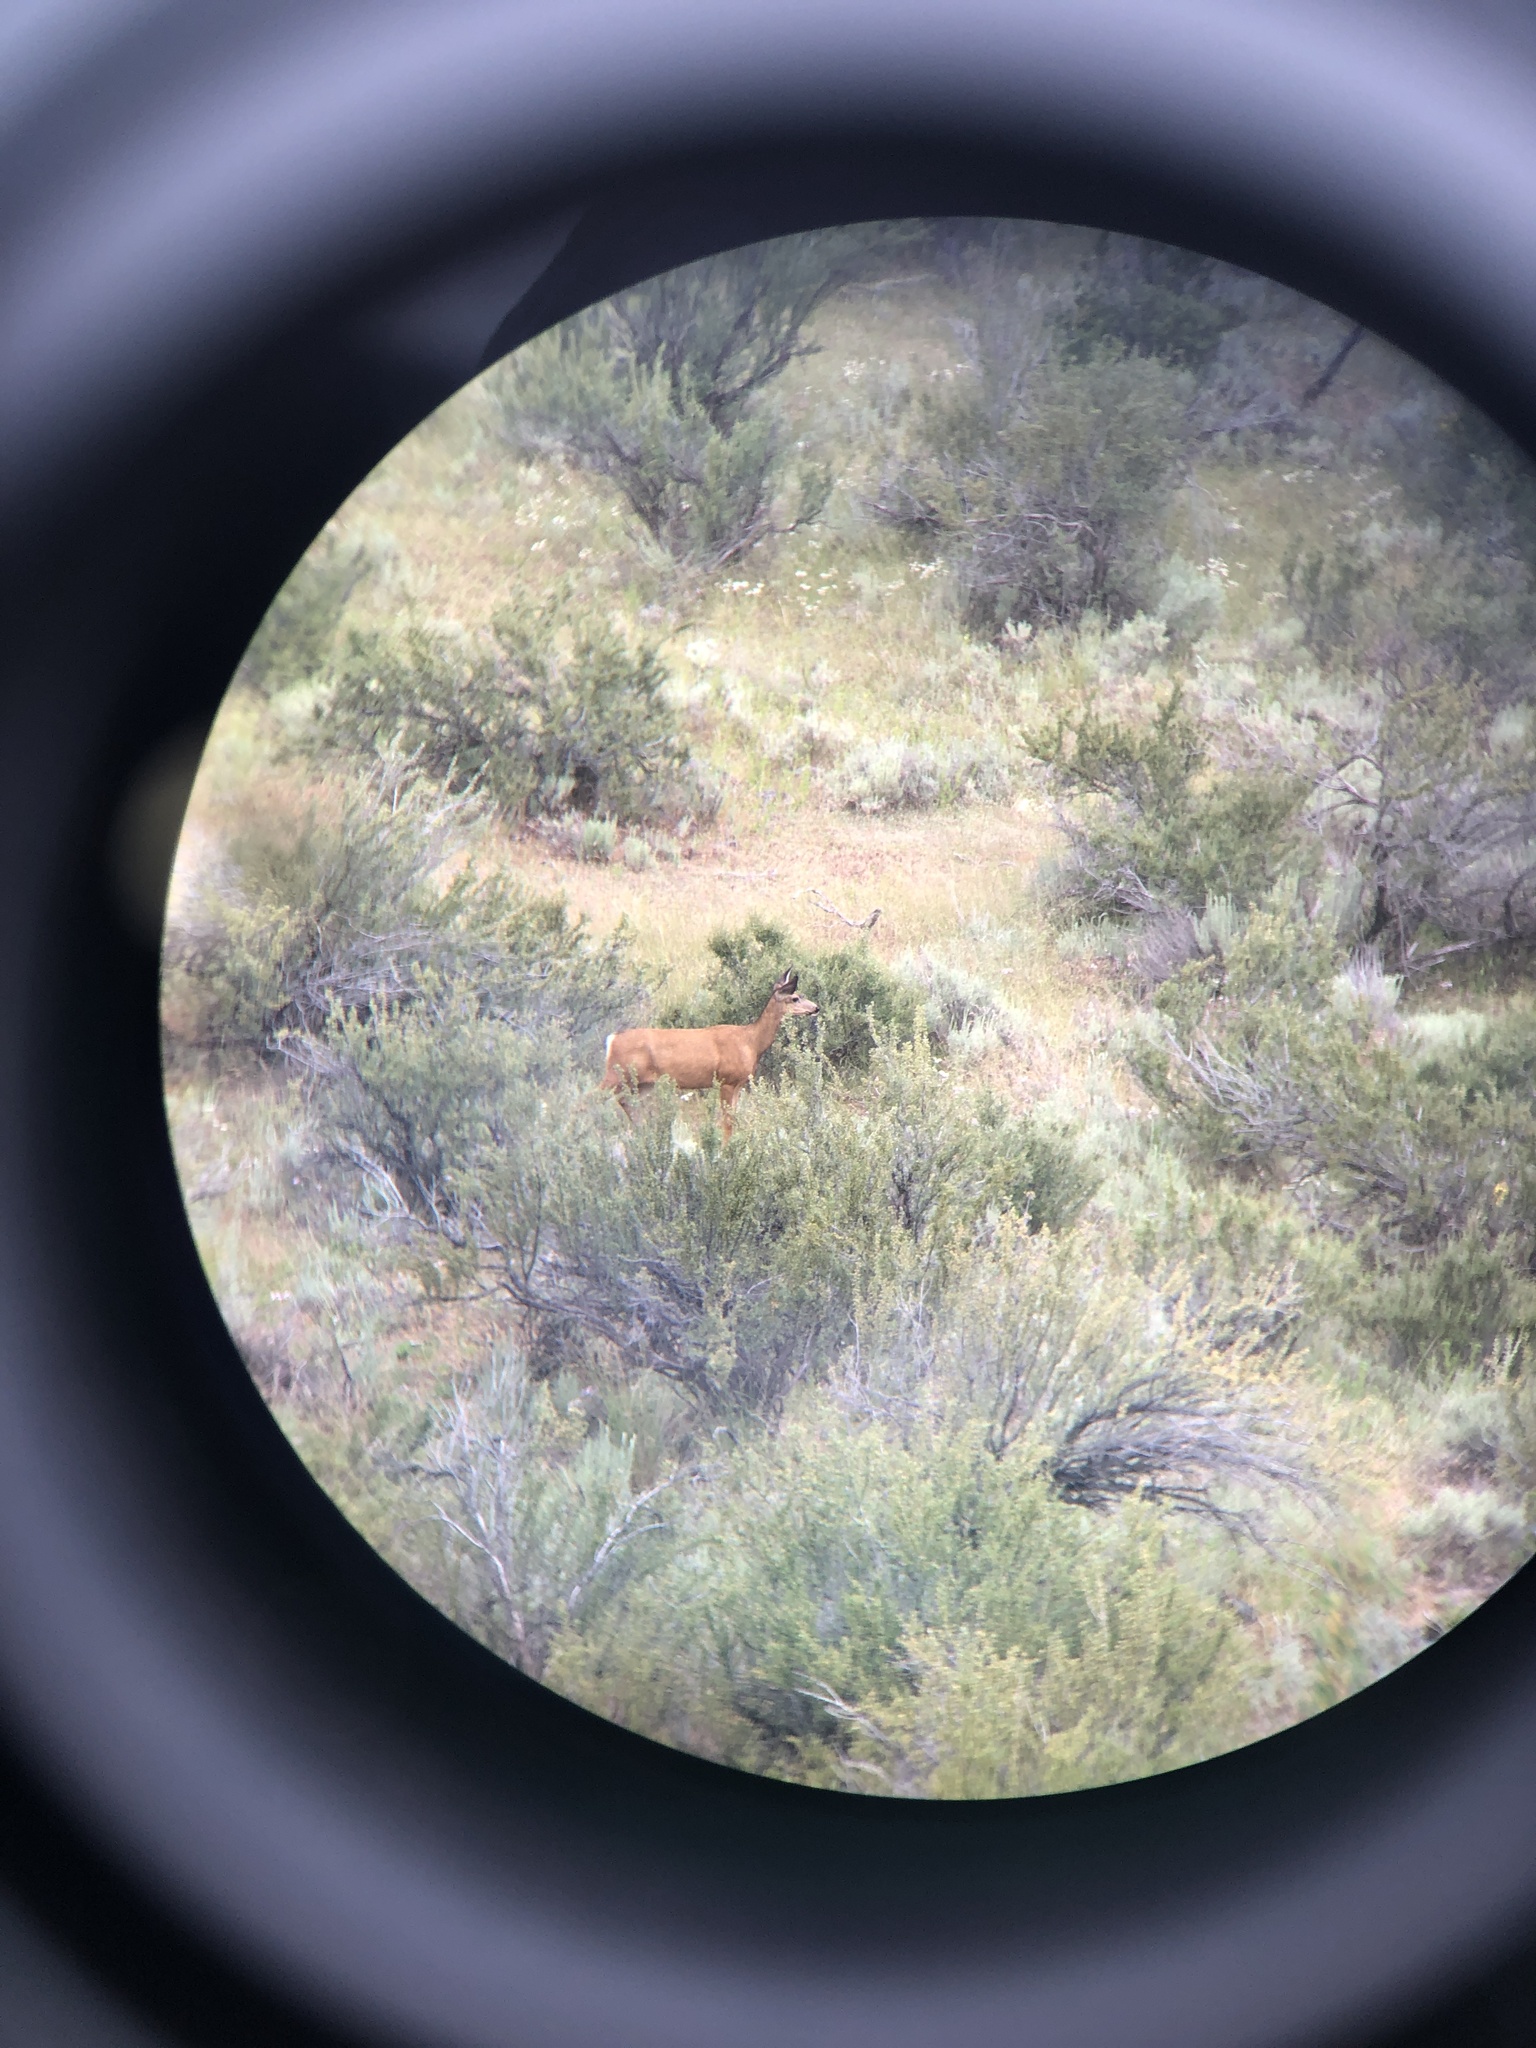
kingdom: Animalia
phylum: Chordata
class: Mammalia
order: Artiodactyla
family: Cervidae
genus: Odocoileus
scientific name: Odocoileus hemionus
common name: Mule deer
